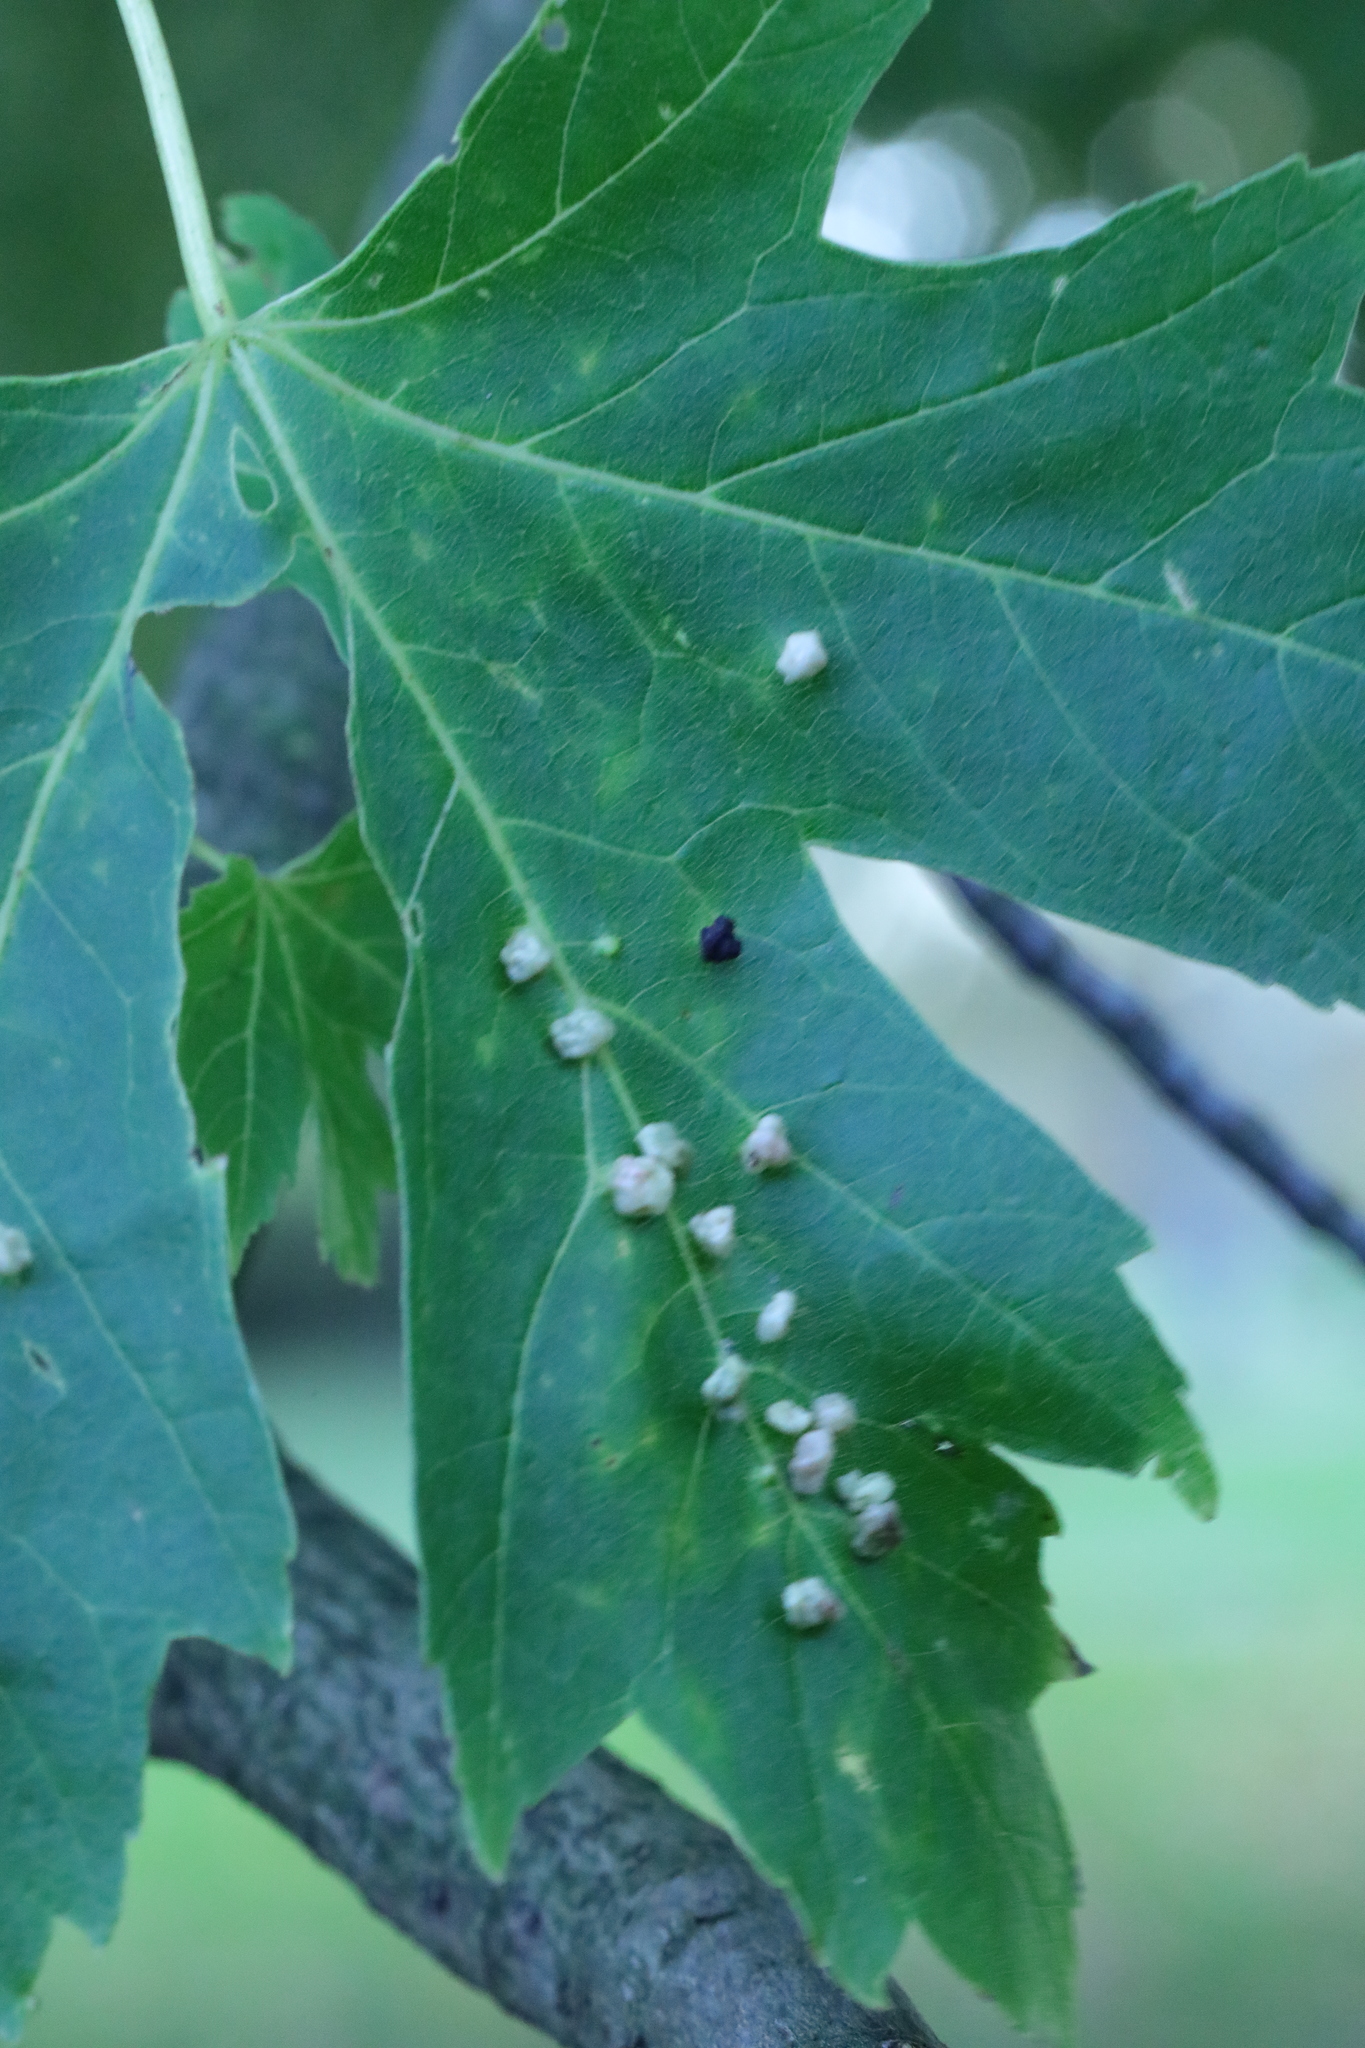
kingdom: Animalia
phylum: Arthropoda
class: Arachnida
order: Trombidiformes
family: Eriophyidae
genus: Vasates
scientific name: Vasates quadripedes
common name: Maple bladder gall mite
